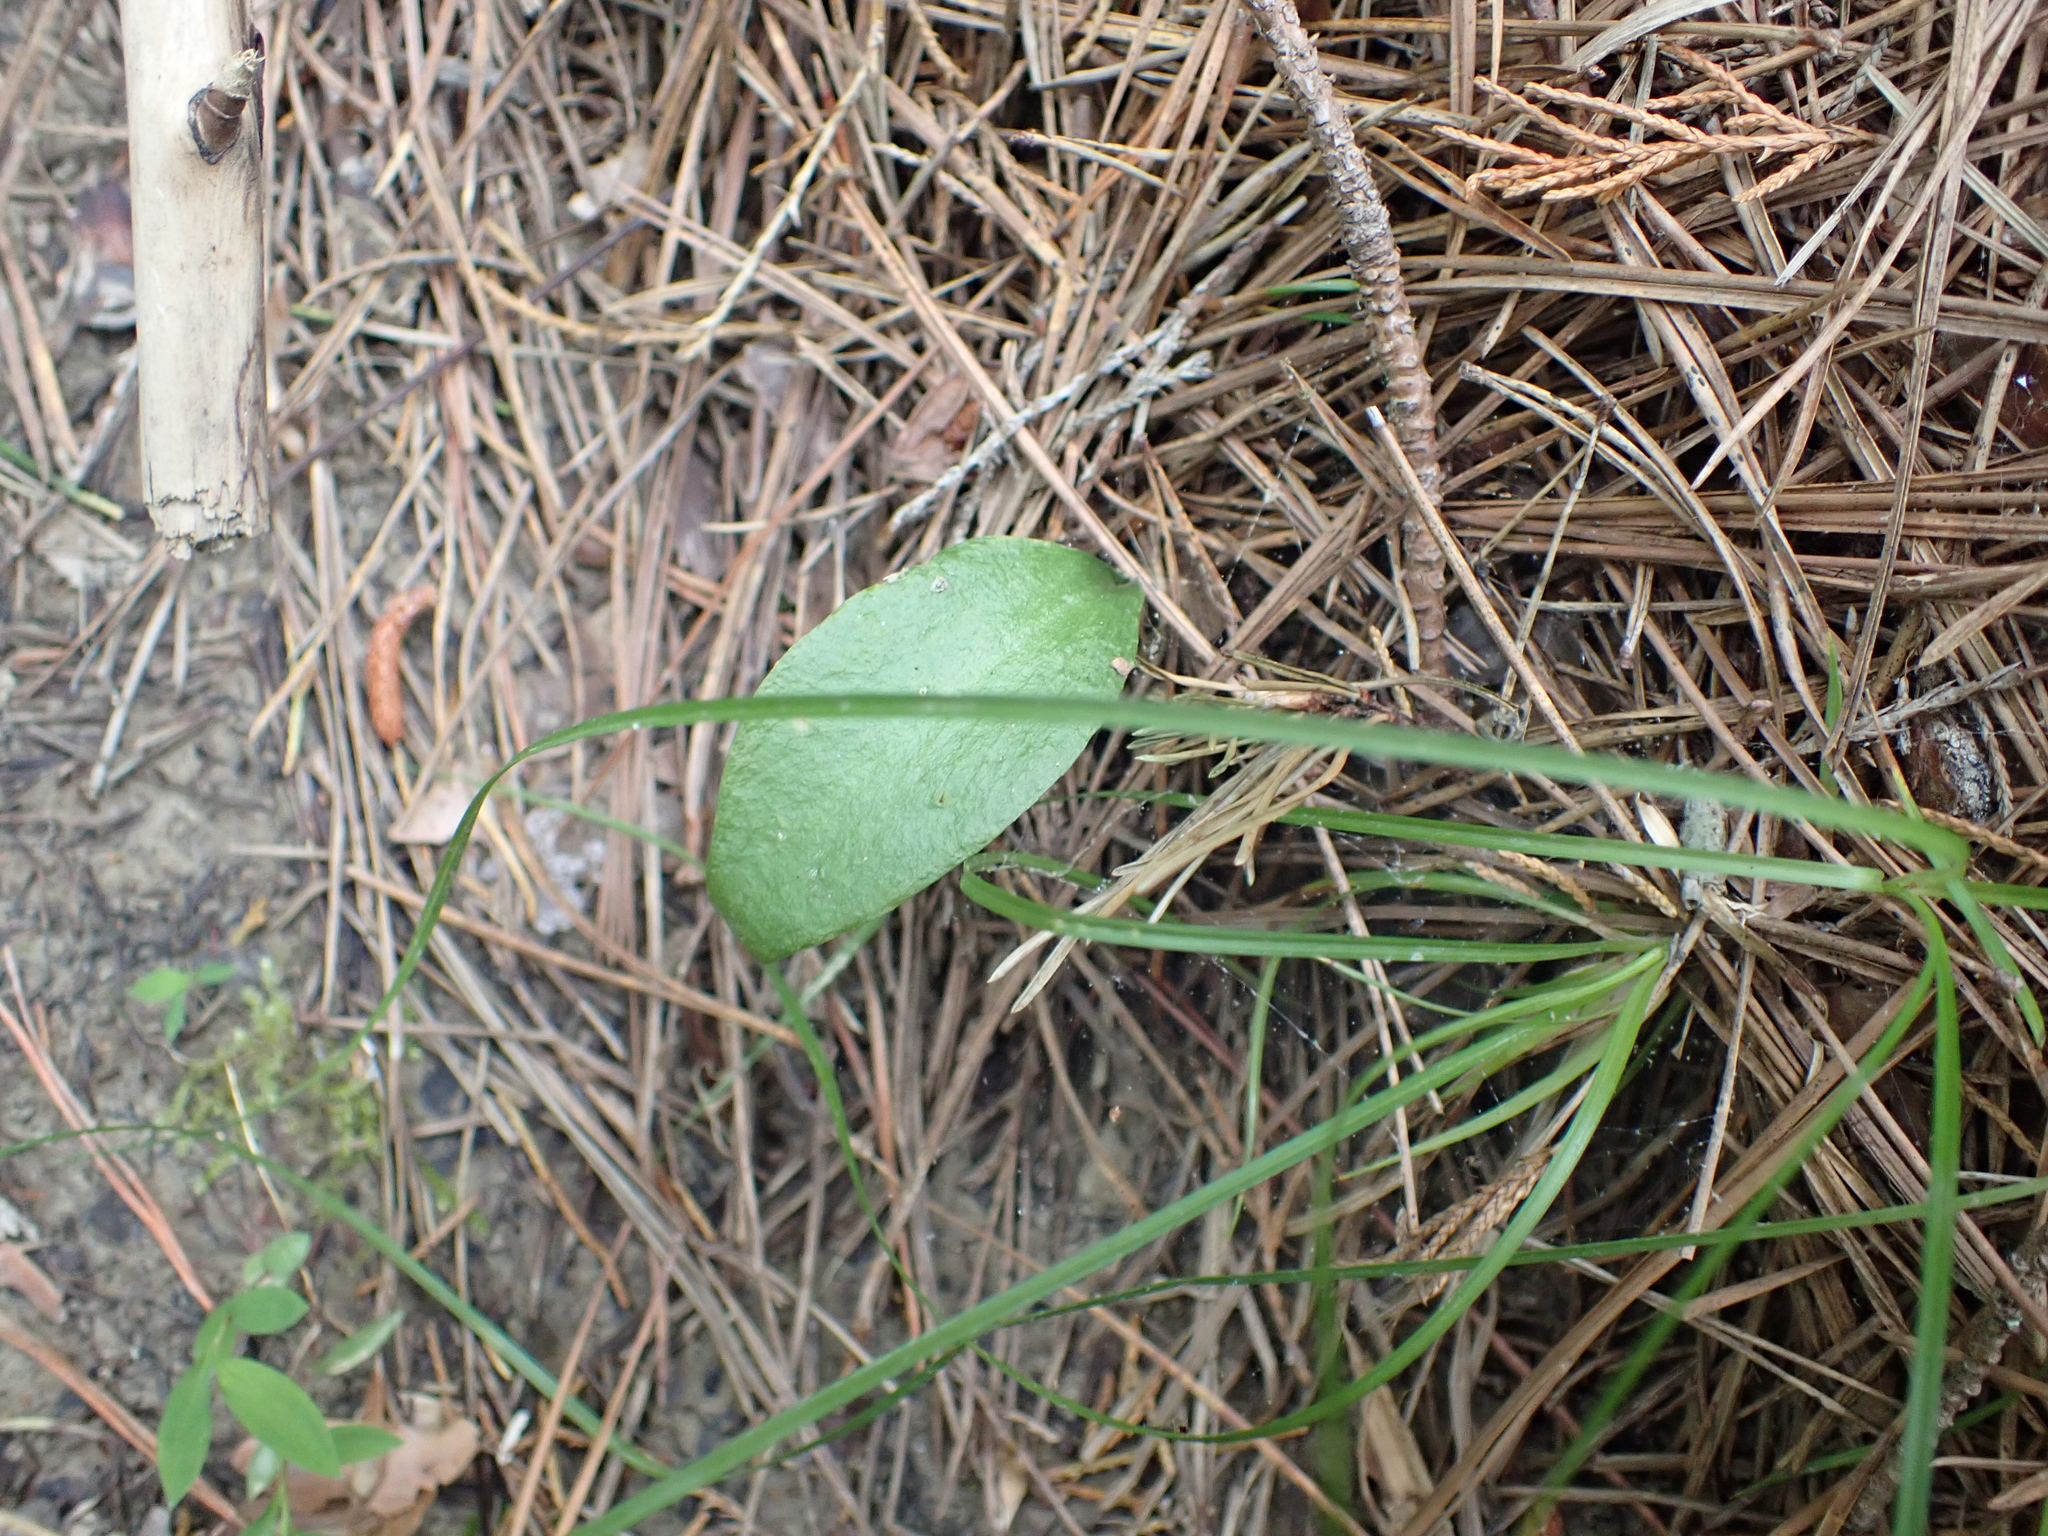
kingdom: Plantae
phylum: Tracheophyta
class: Polypodiopsida
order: Ophioglossales
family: Ophioglossaceae
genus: Ophioglossum
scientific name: Ophioglossum vulgatum
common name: Adder's-tongue
